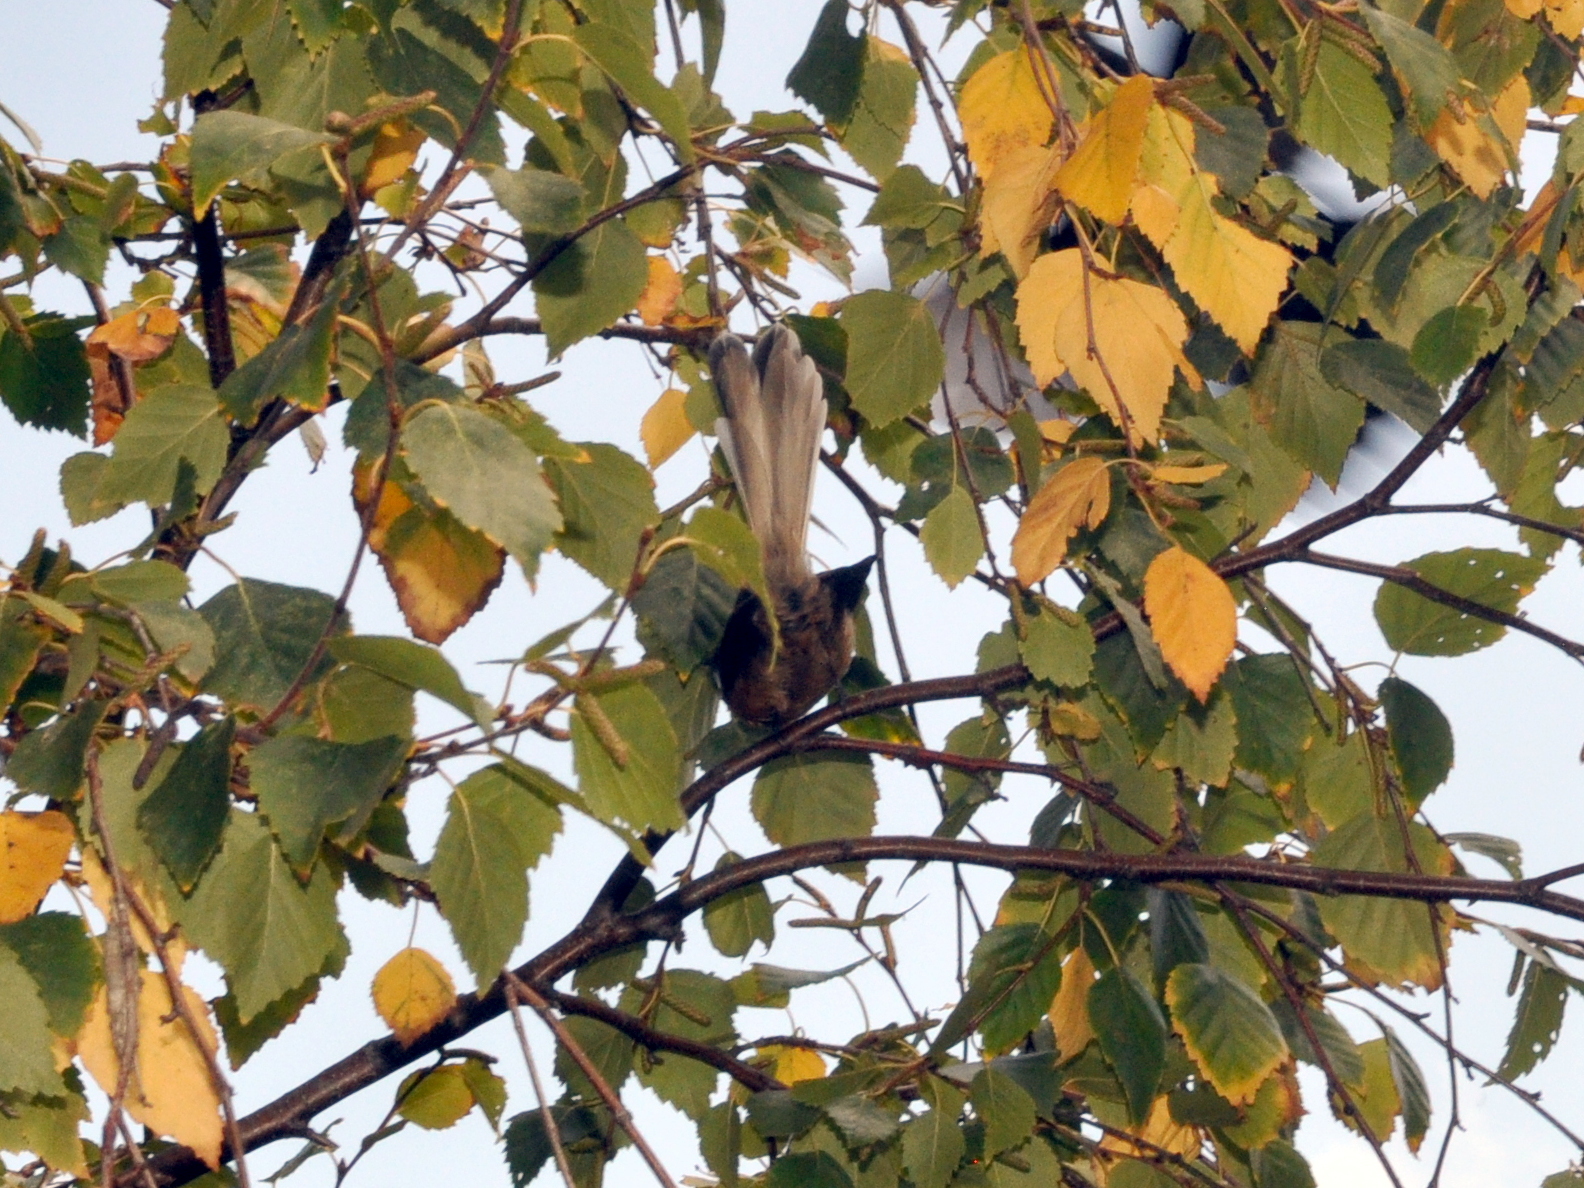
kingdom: Animalia
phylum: Chordata
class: Aves
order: Passeriformes
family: Rhipiduridae
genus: Rhipidura
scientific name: Rhipidura fuliginosa
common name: New zealand fantail
